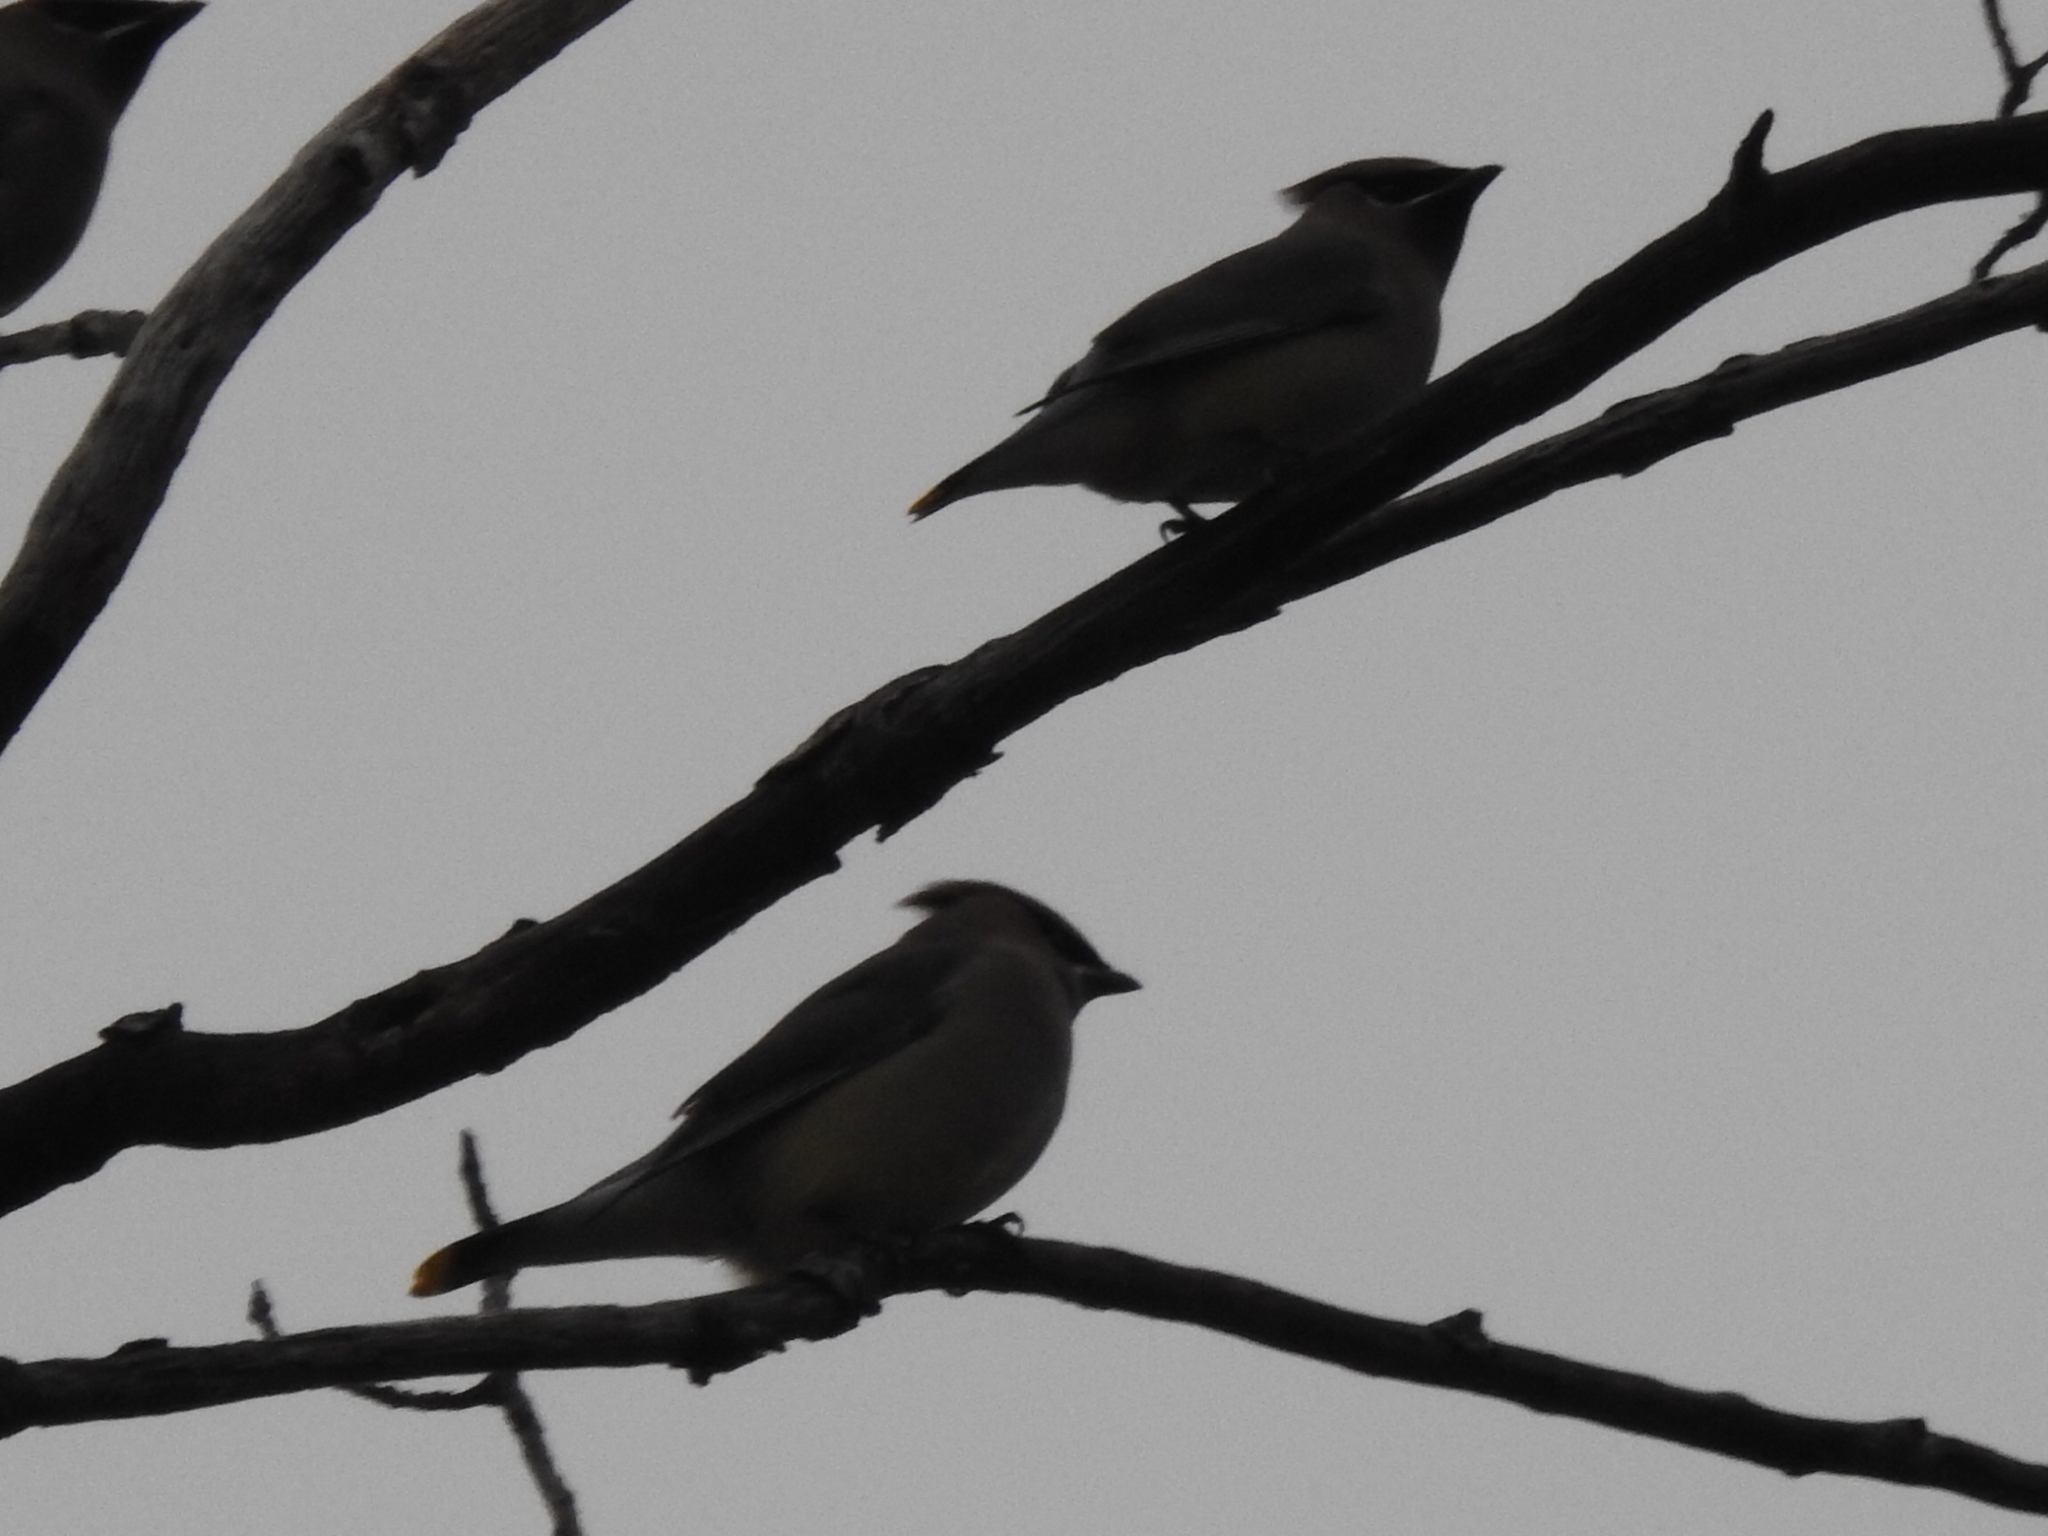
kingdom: Animalia
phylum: Chordata
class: Aves
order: Passeriformes
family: Bombycillidae
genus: Bombycilla
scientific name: Bombycilla cedrorum
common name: Cedar waxwing
